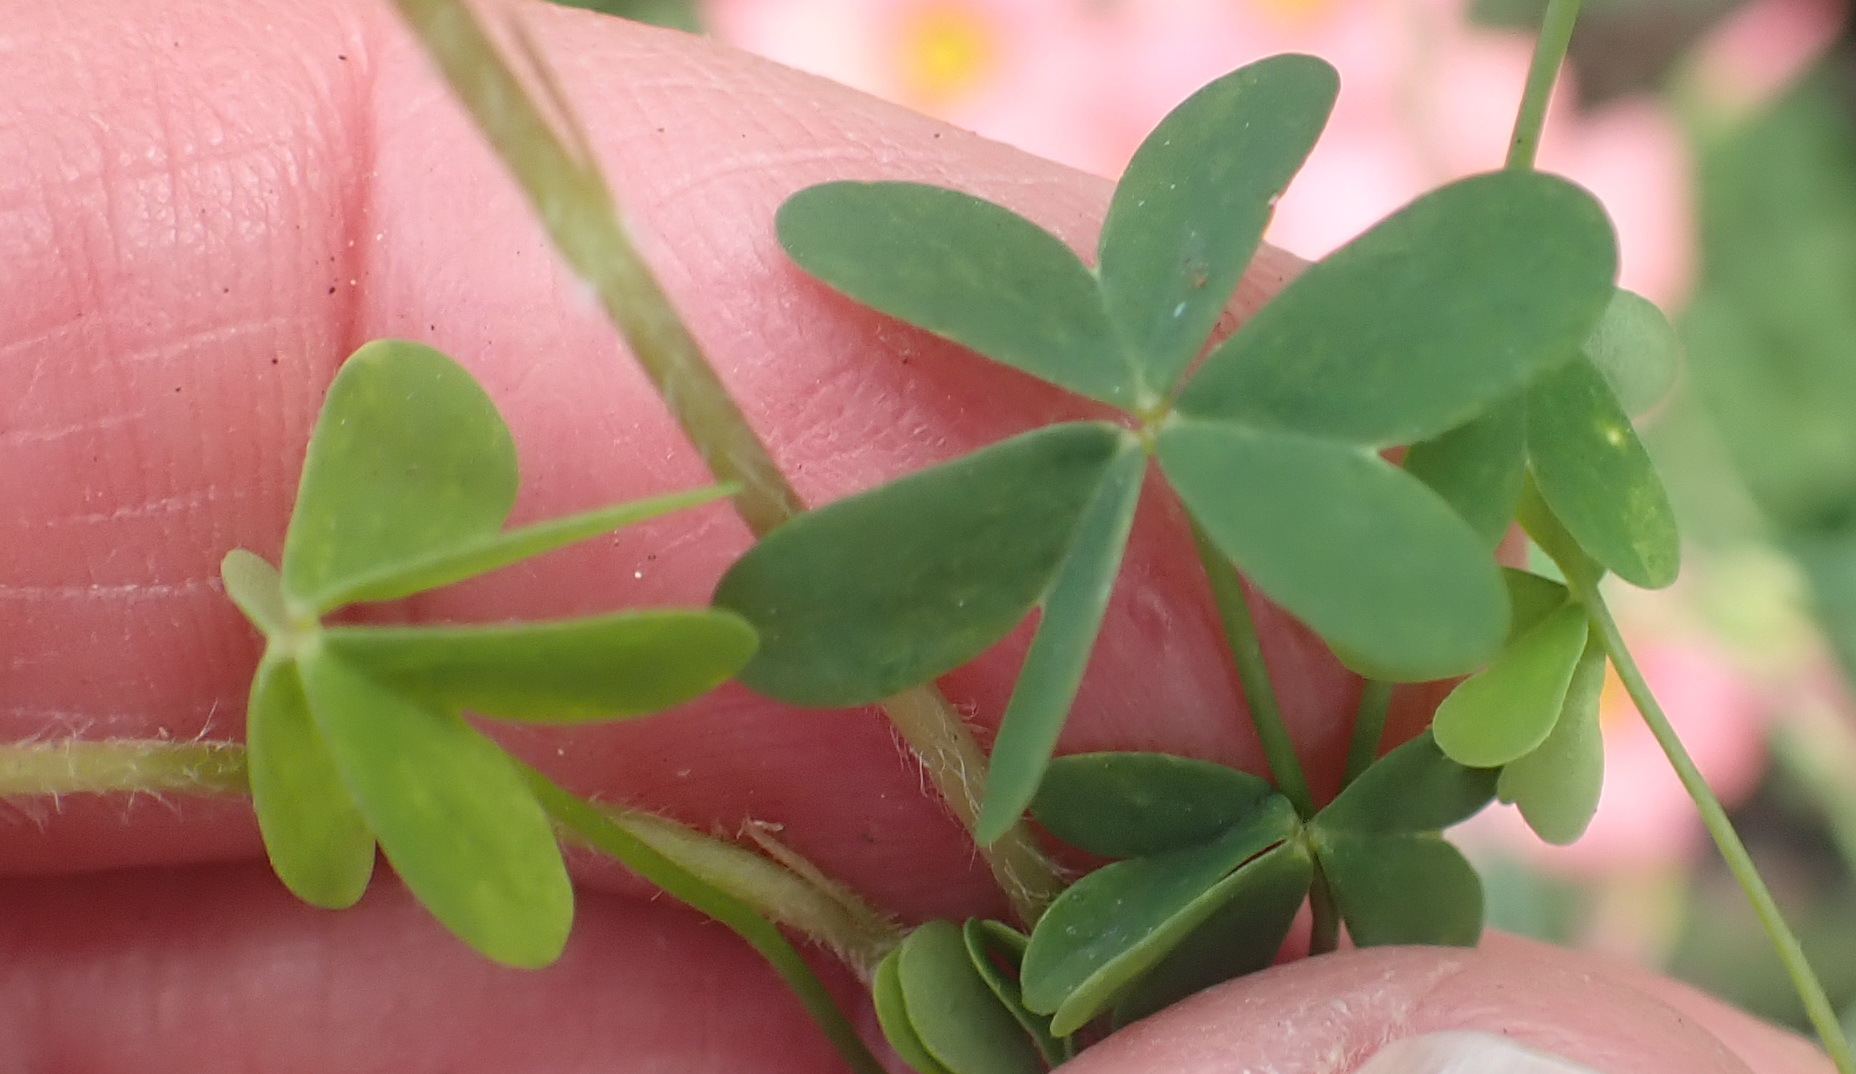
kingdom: Plantae
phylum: Tracheophyta
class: Magnoliopsida
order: Oxalidales
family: Oxalidaceae
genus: Oxalis
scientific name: Oxalis obtusa
